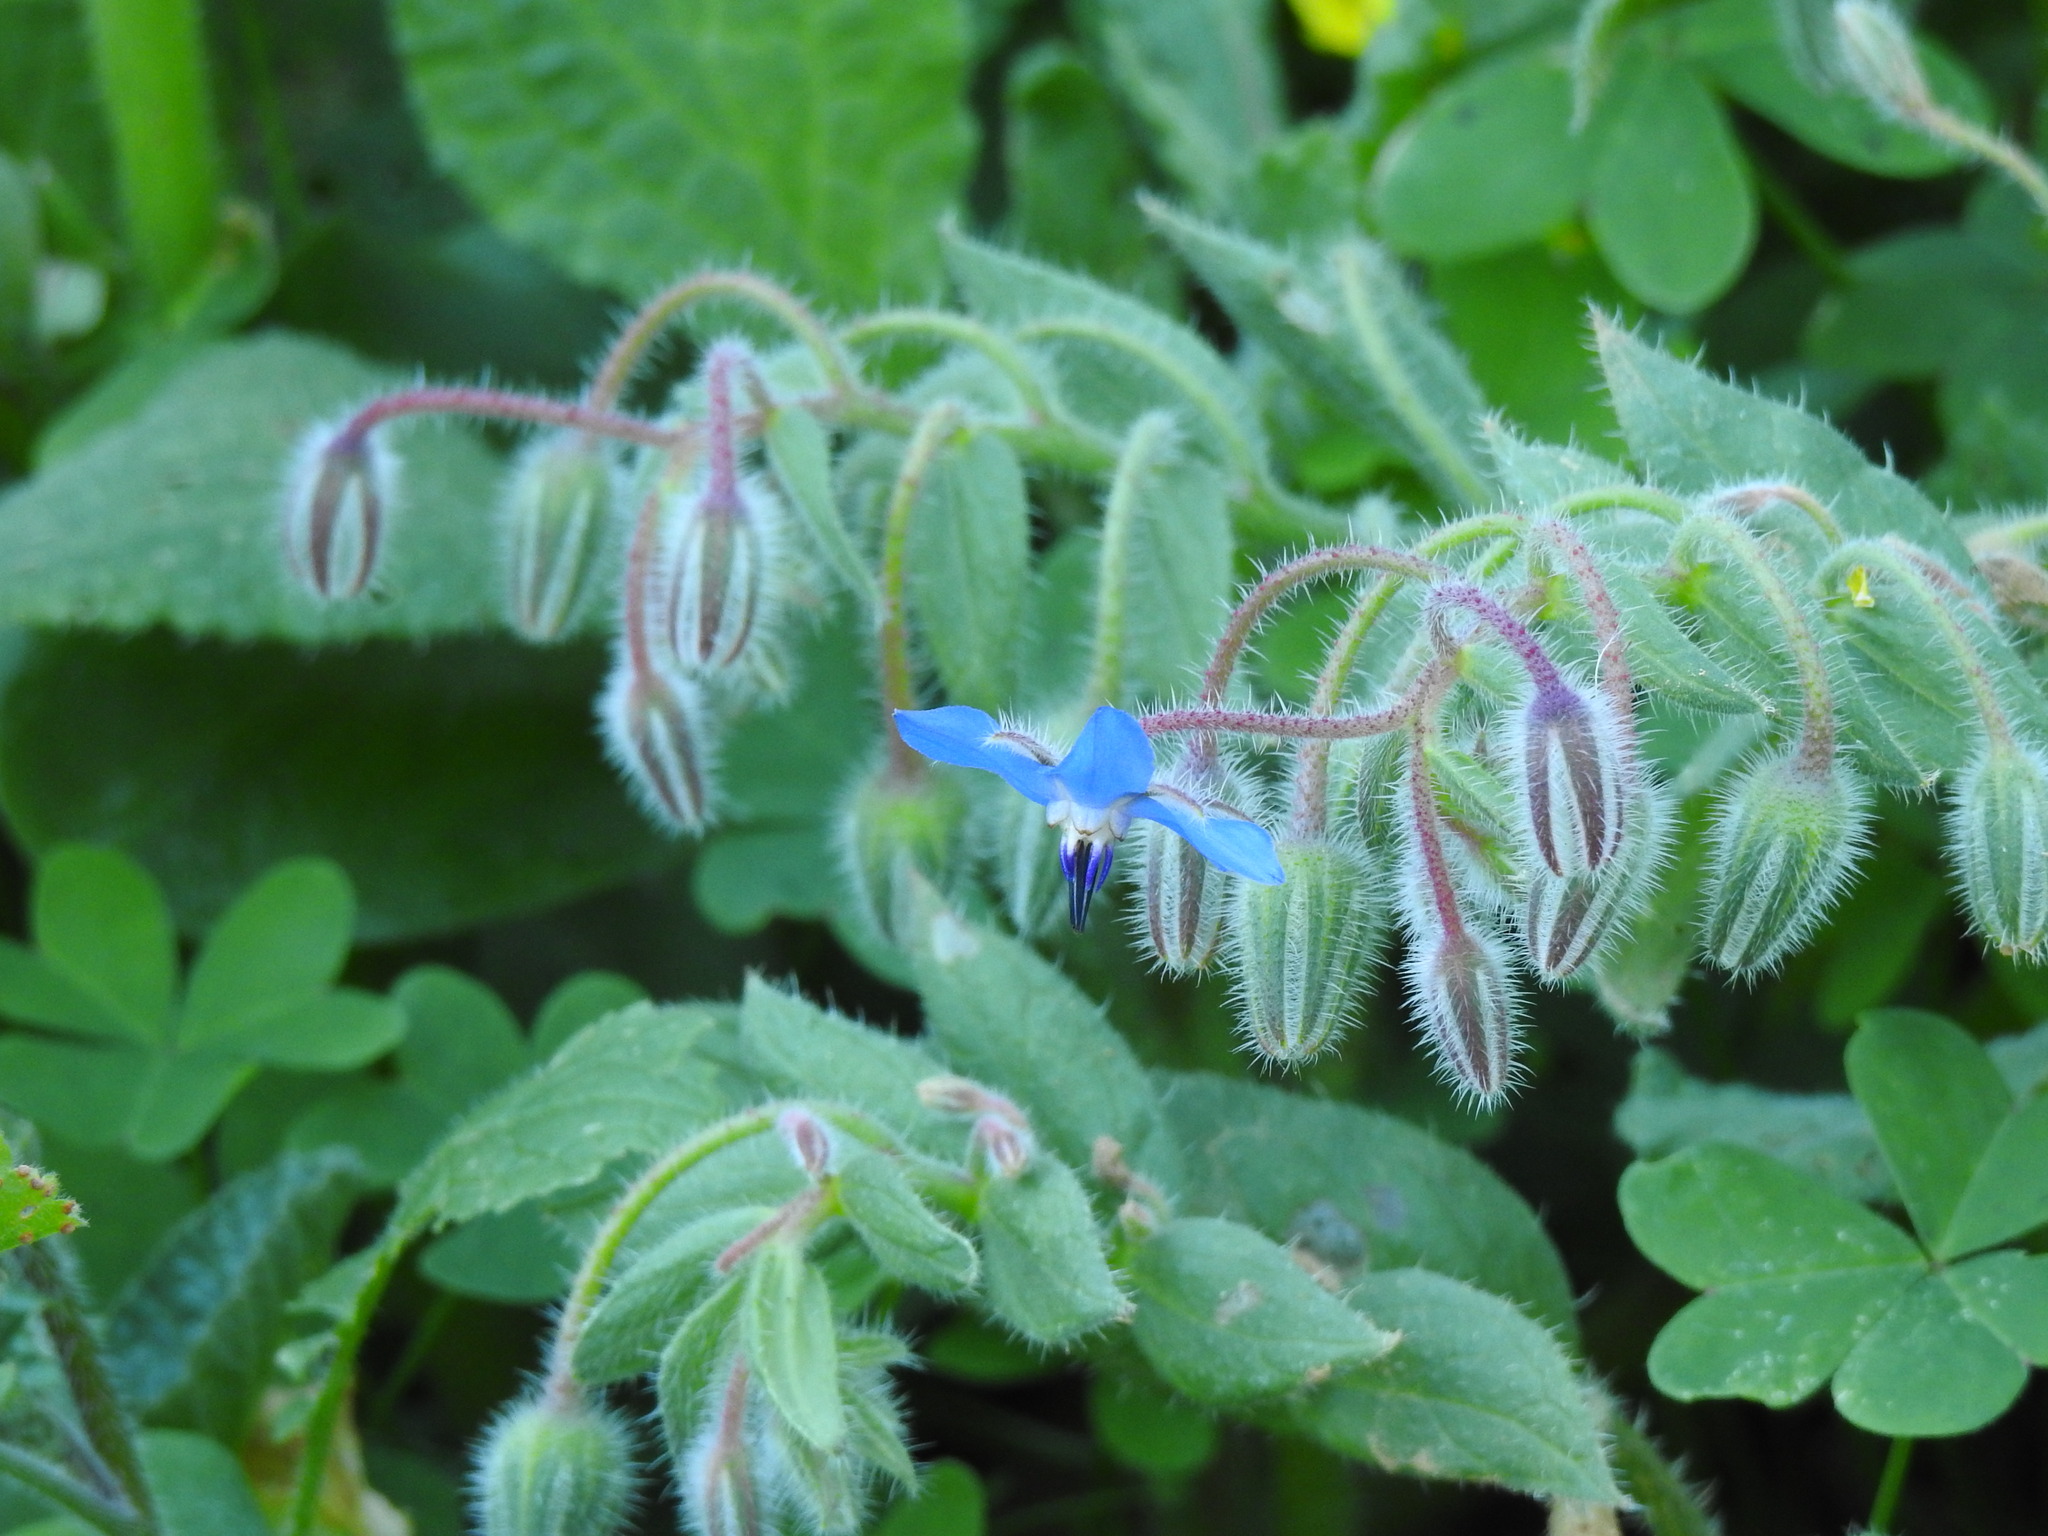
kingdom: Plantae
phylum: Tracheophyta
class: Magnoliopsida
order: Boraginales
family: Boraginaceae
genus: Borago
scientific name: Borago officinalis
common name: Borage
